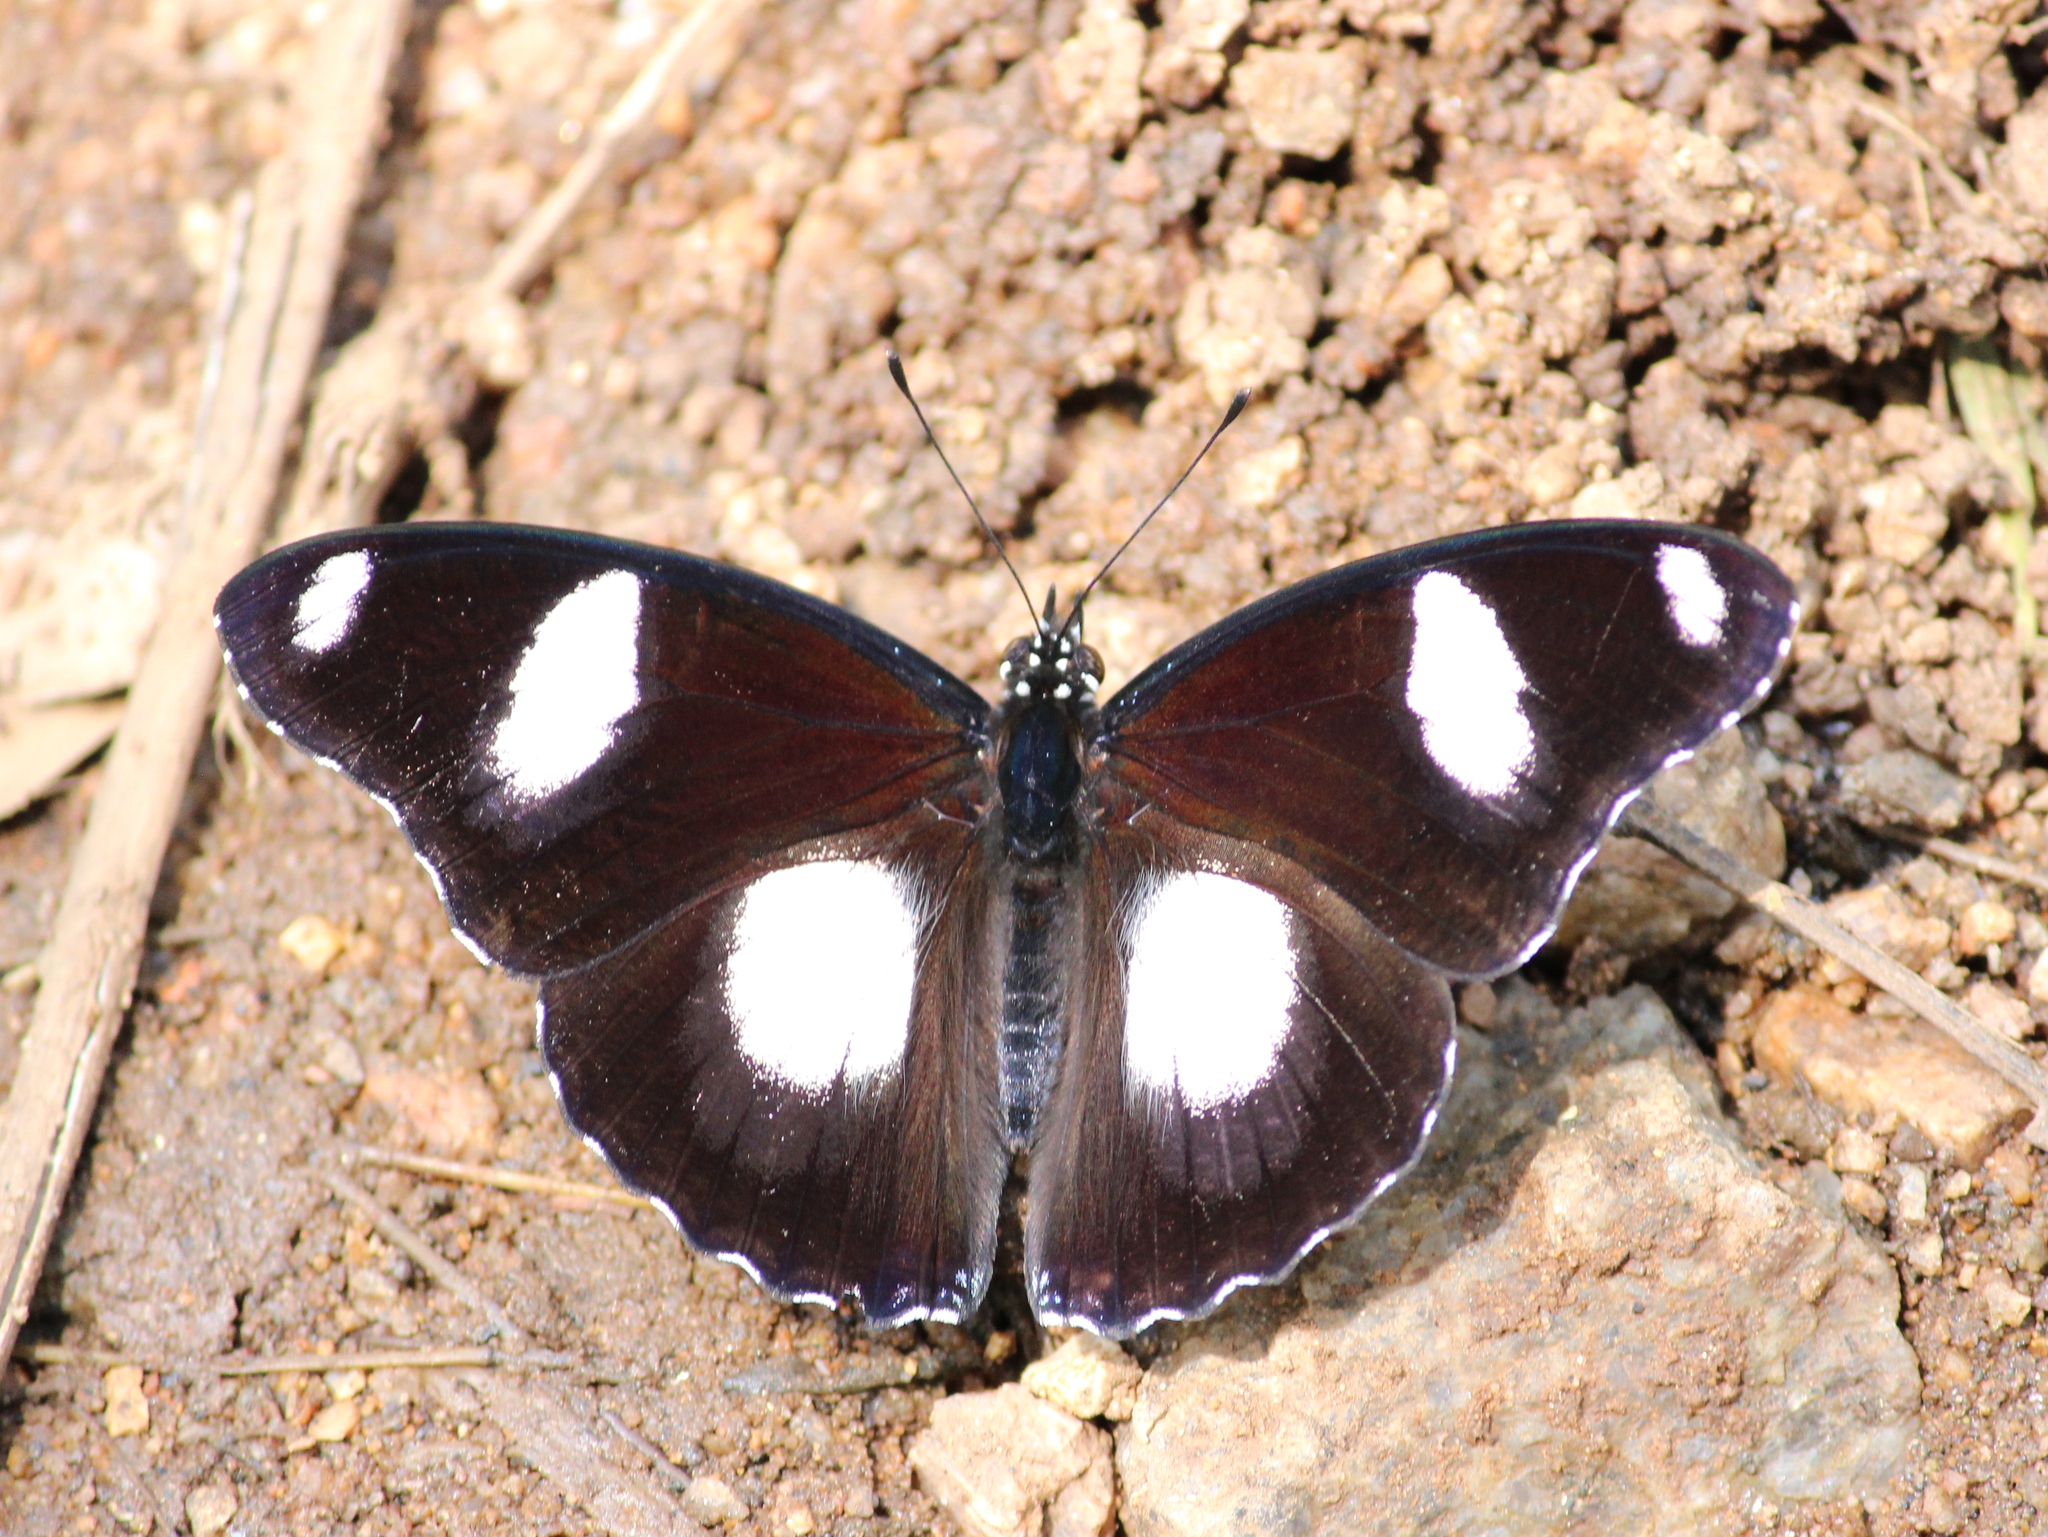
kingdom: Animalia
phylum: Arthropoda
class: Insecta
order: Lepidoptera
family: Nymphalidae
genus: Hypolimnas
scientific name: Hypolimnas misippus
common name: False plain tiger
